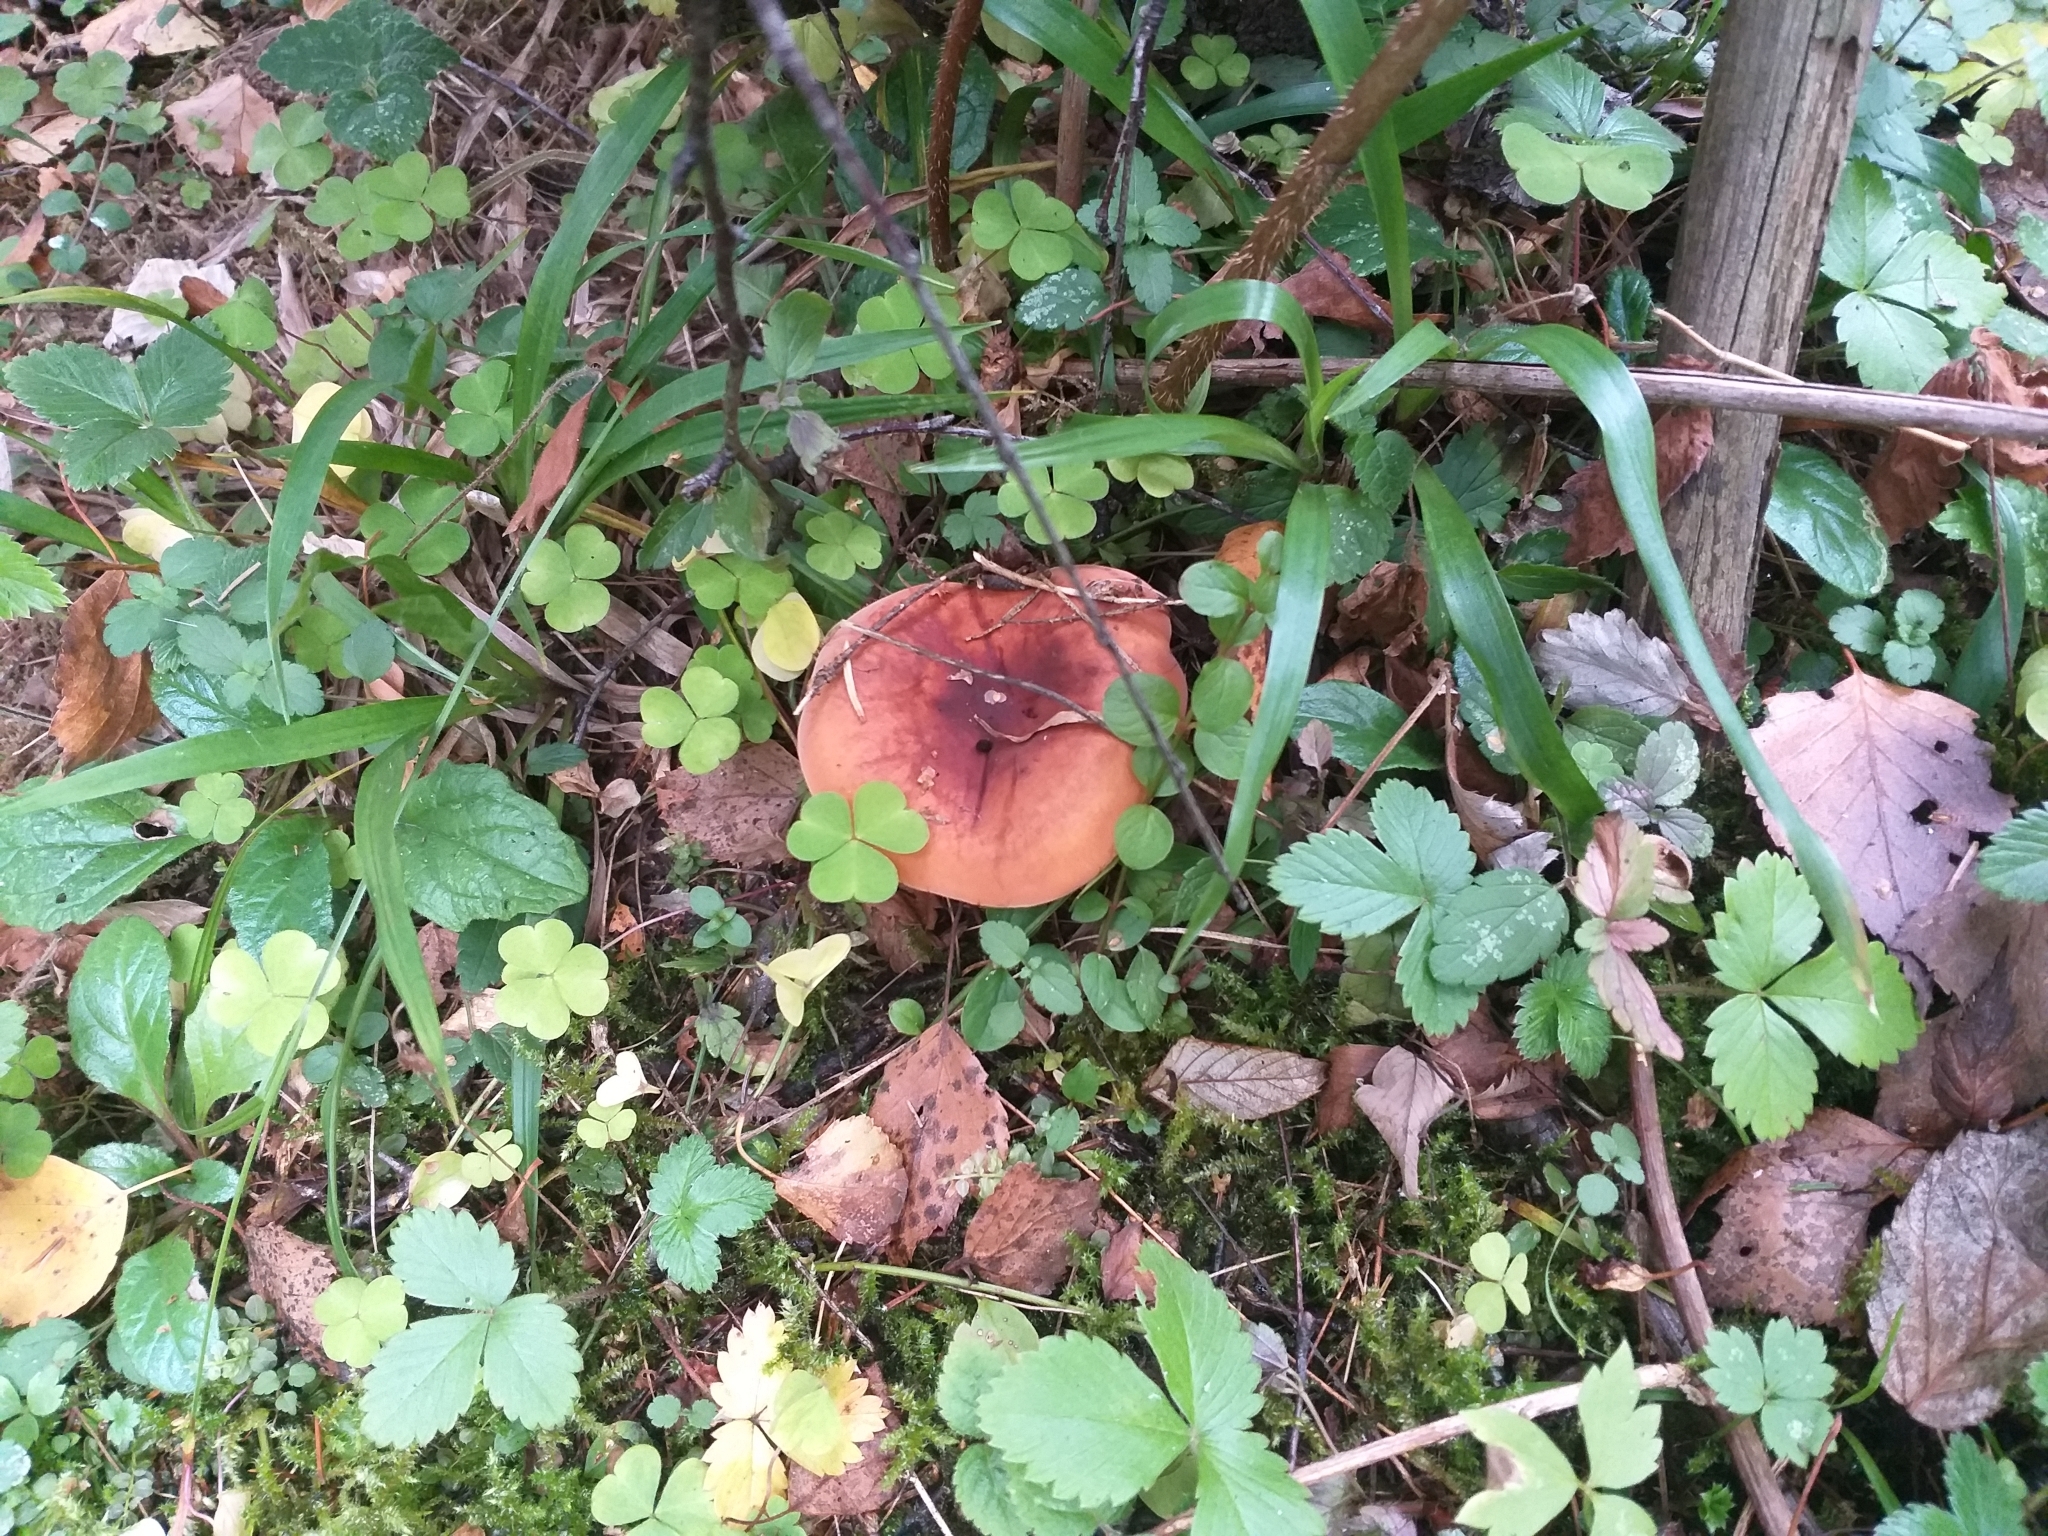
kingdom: Fungi
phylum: Basidiomycota
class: Agaricomycetes
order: Russulales
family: Russulaceae
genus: Lactifluus
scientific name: Lactifluus volemus
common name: Fishy milkcap
